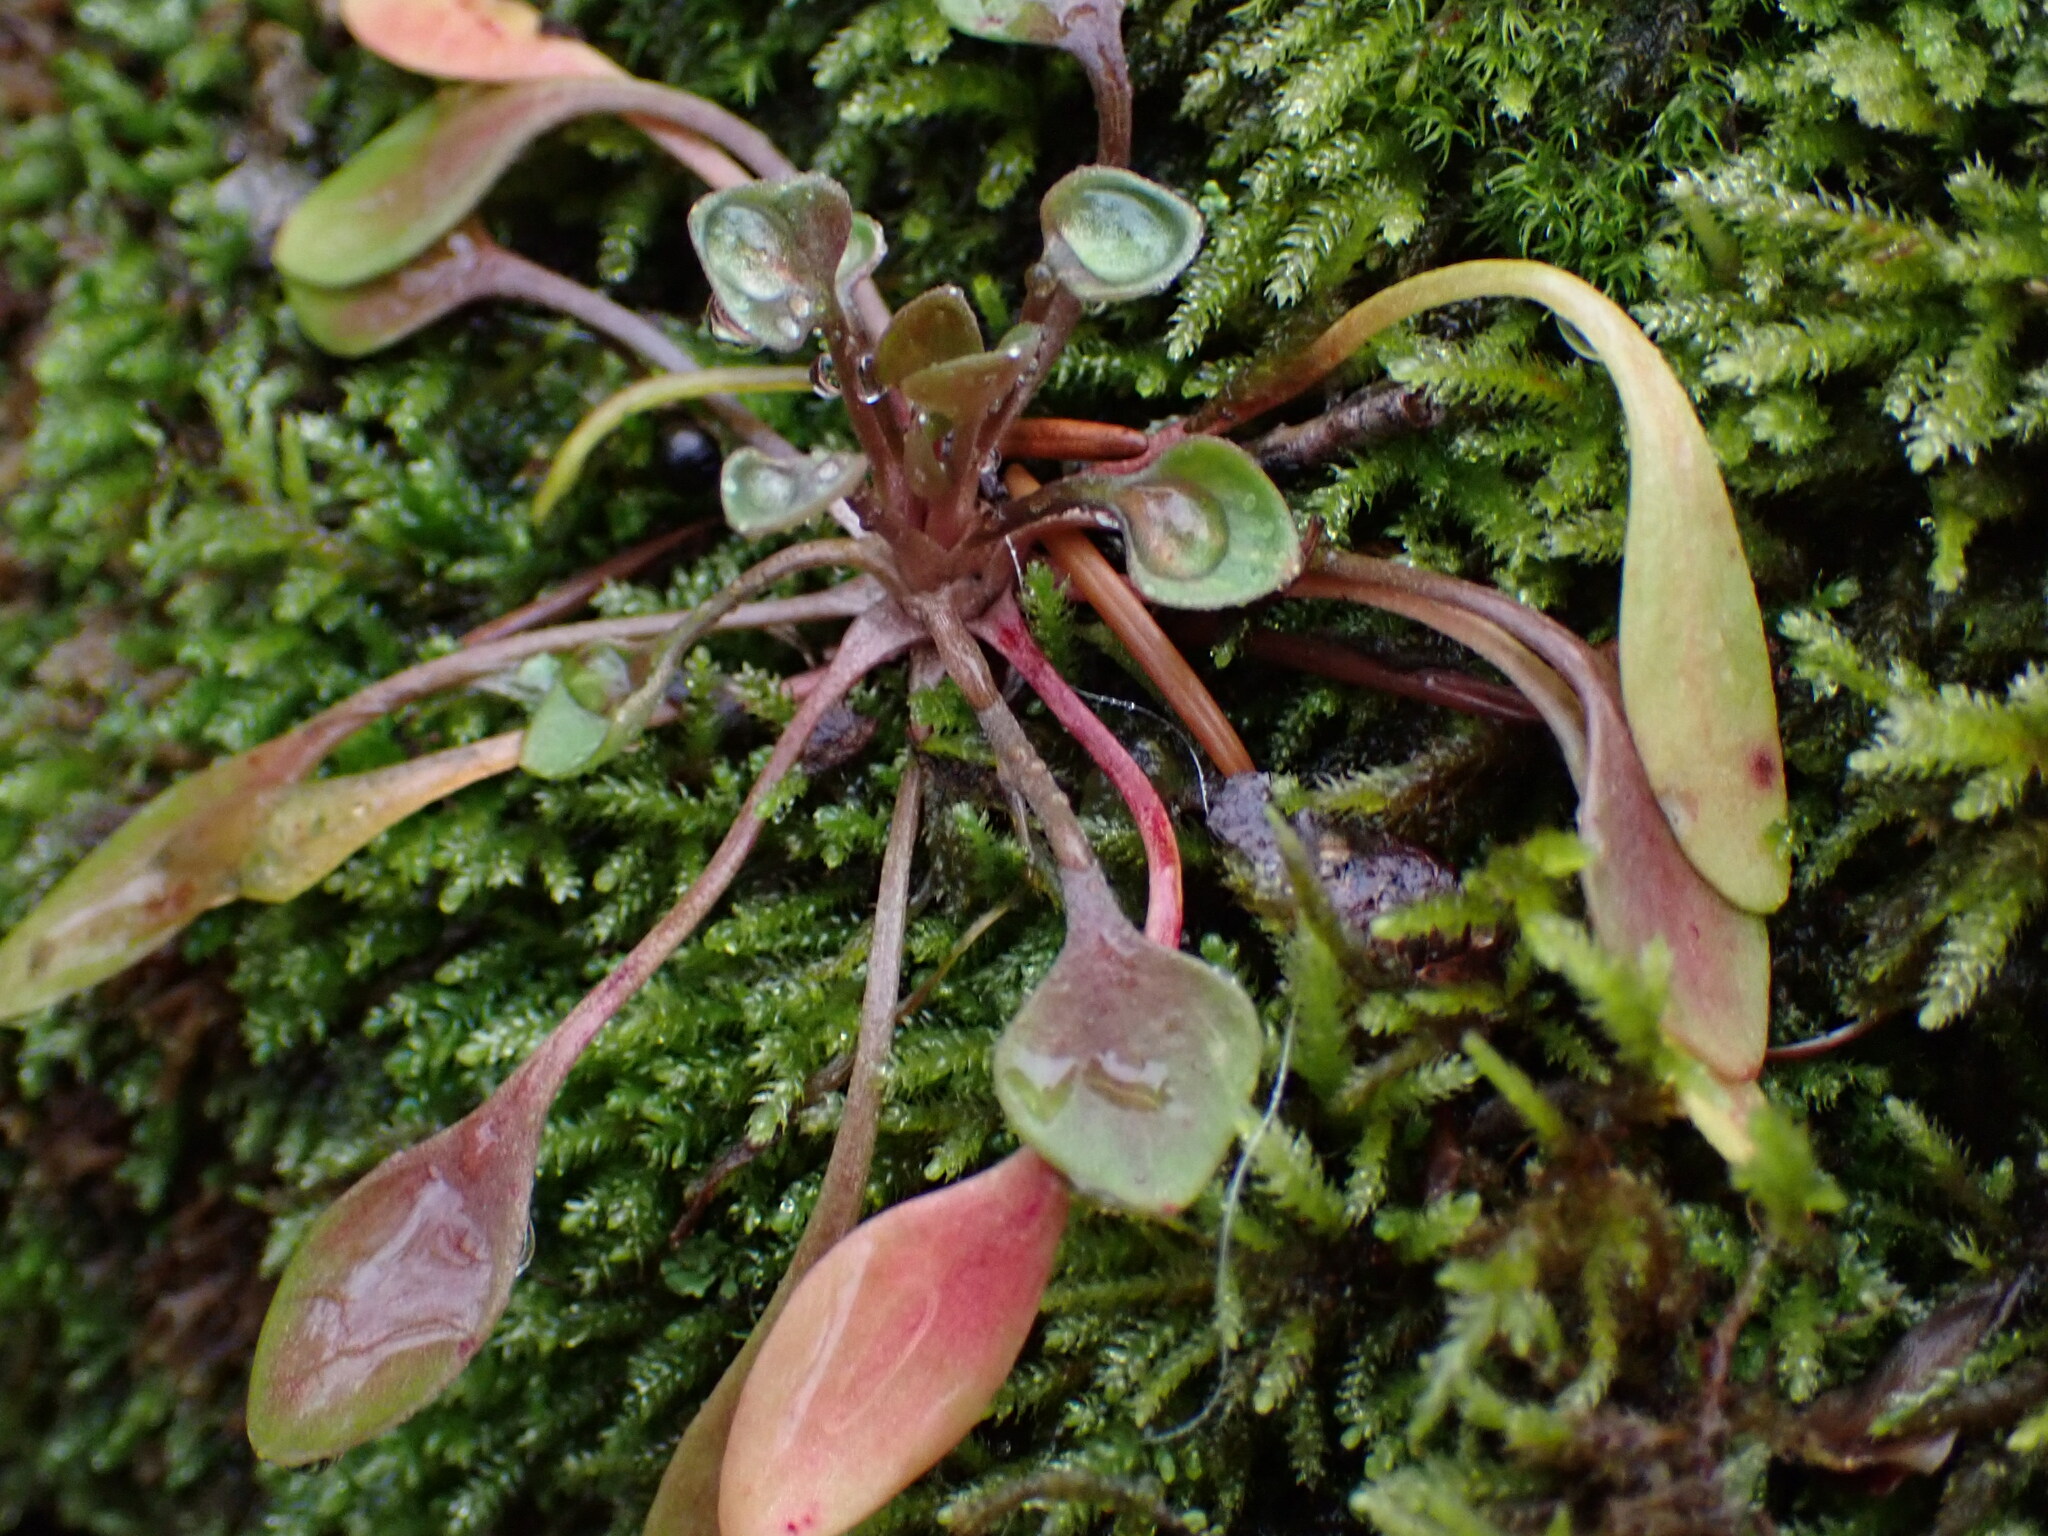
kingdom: Plantae
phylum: Tracheophyta
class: Magnoliopsida
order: Caryophyllales
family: Montiaceae
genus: Claytonia
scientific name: Claytonia rubra
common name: Erubescent miner's-lettuce
